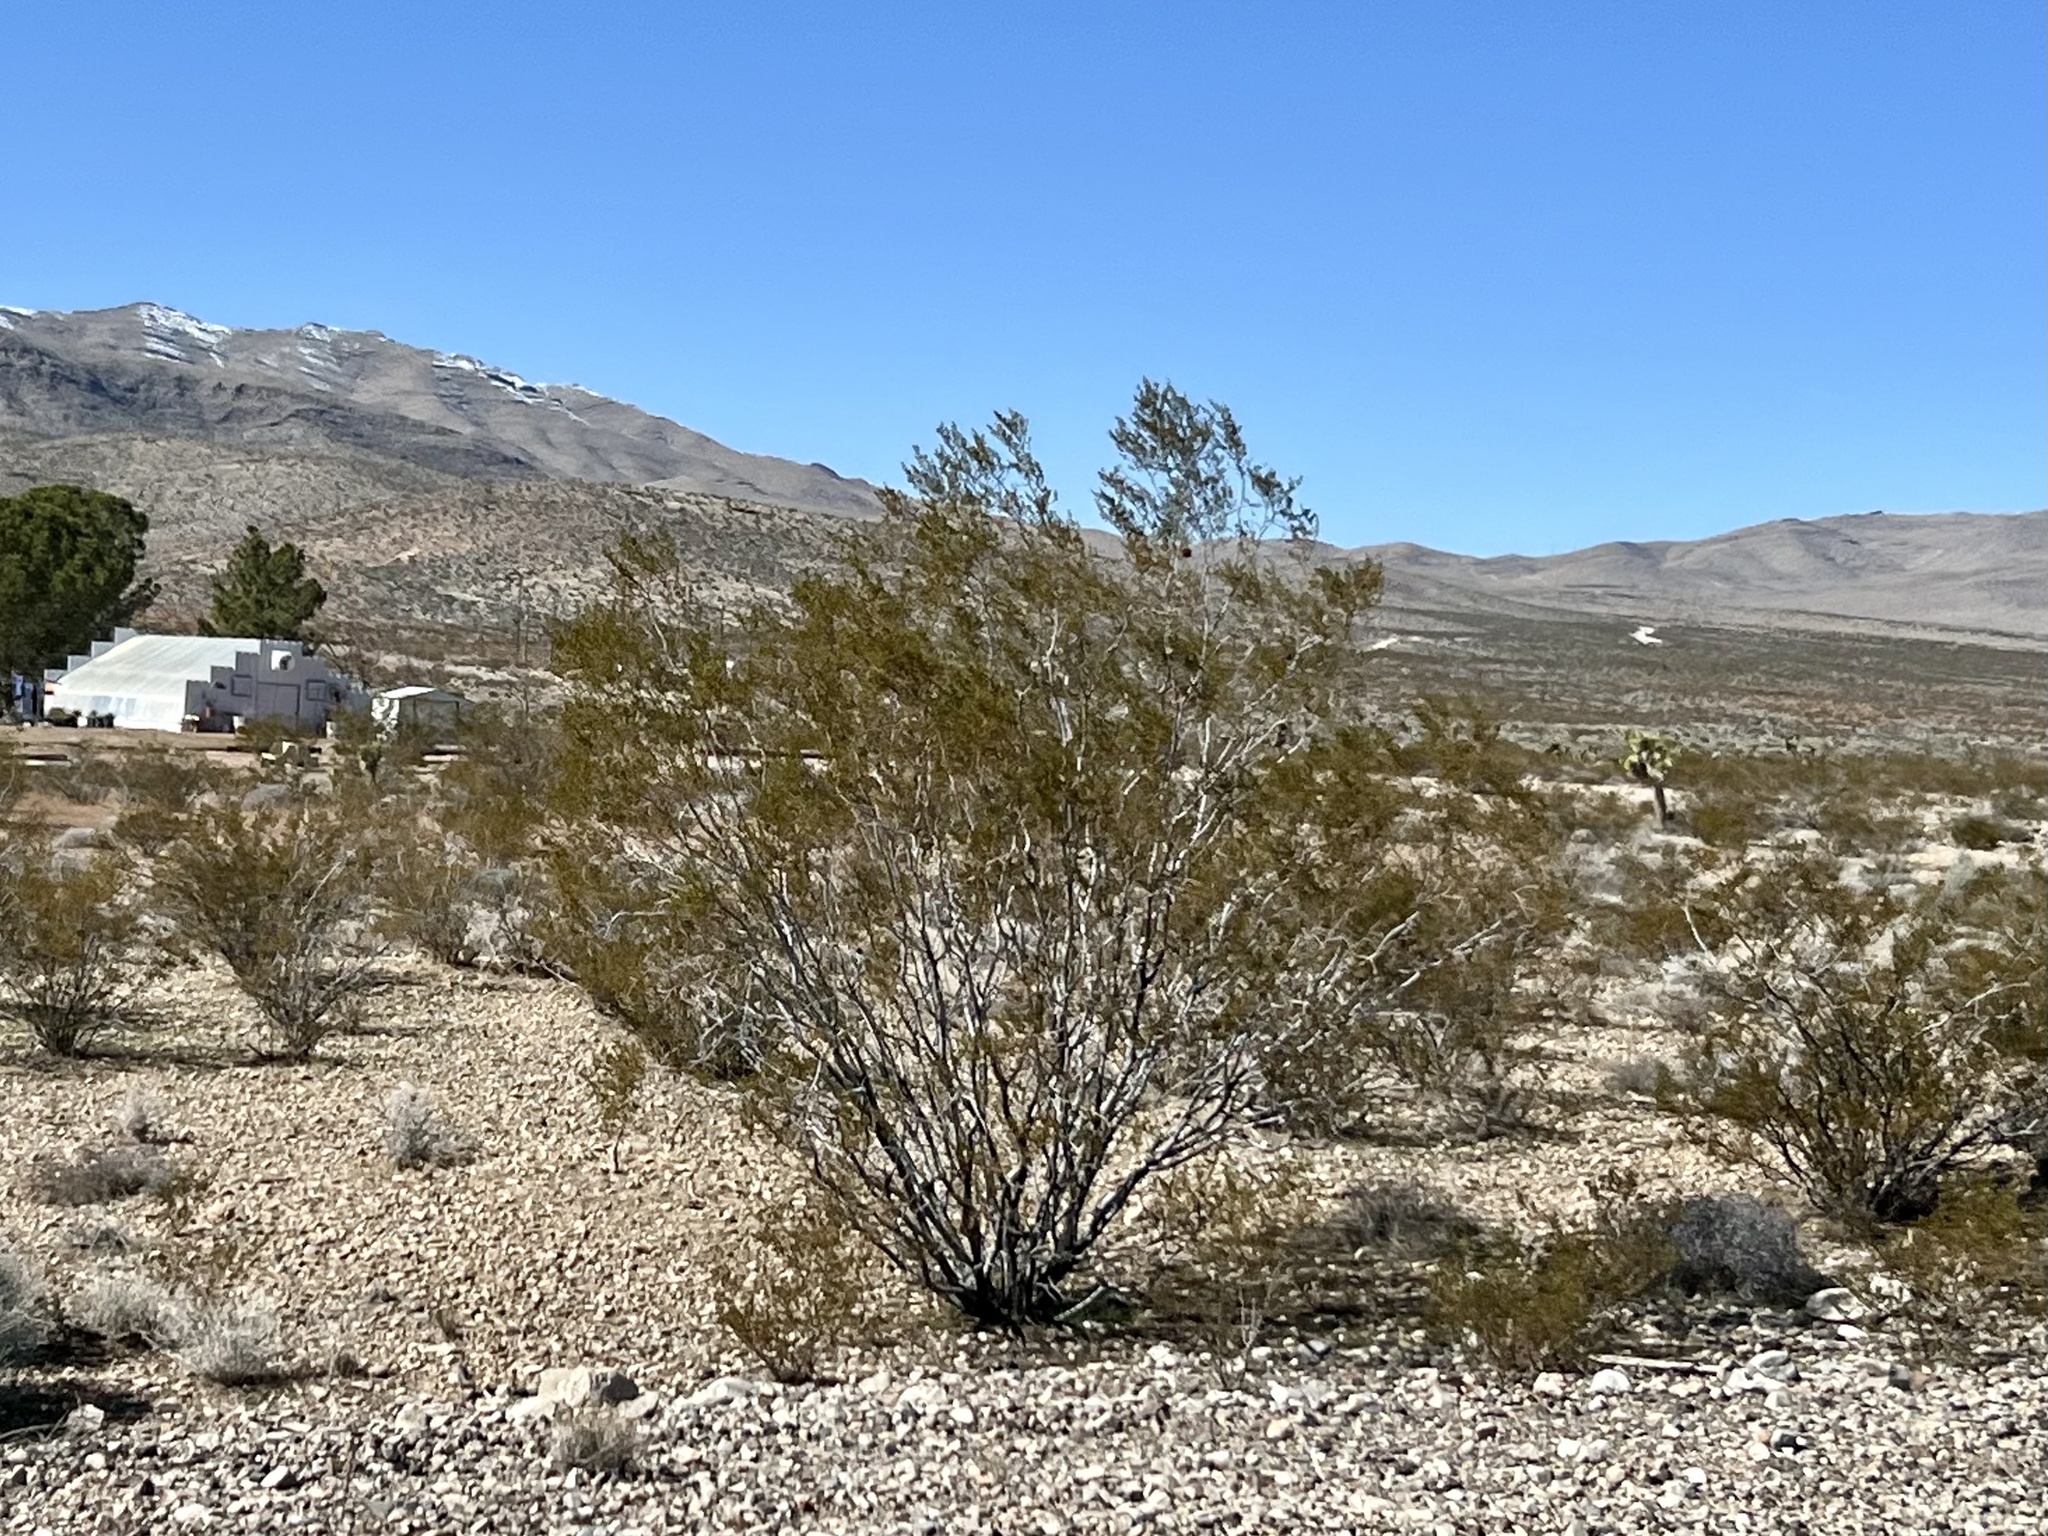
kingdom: Plantae
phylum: Tracheophyta
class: Magnoliopsida
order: Zygophyllales
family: Zygophyllaceae
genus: Larrea
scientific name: Larrea tridentata
